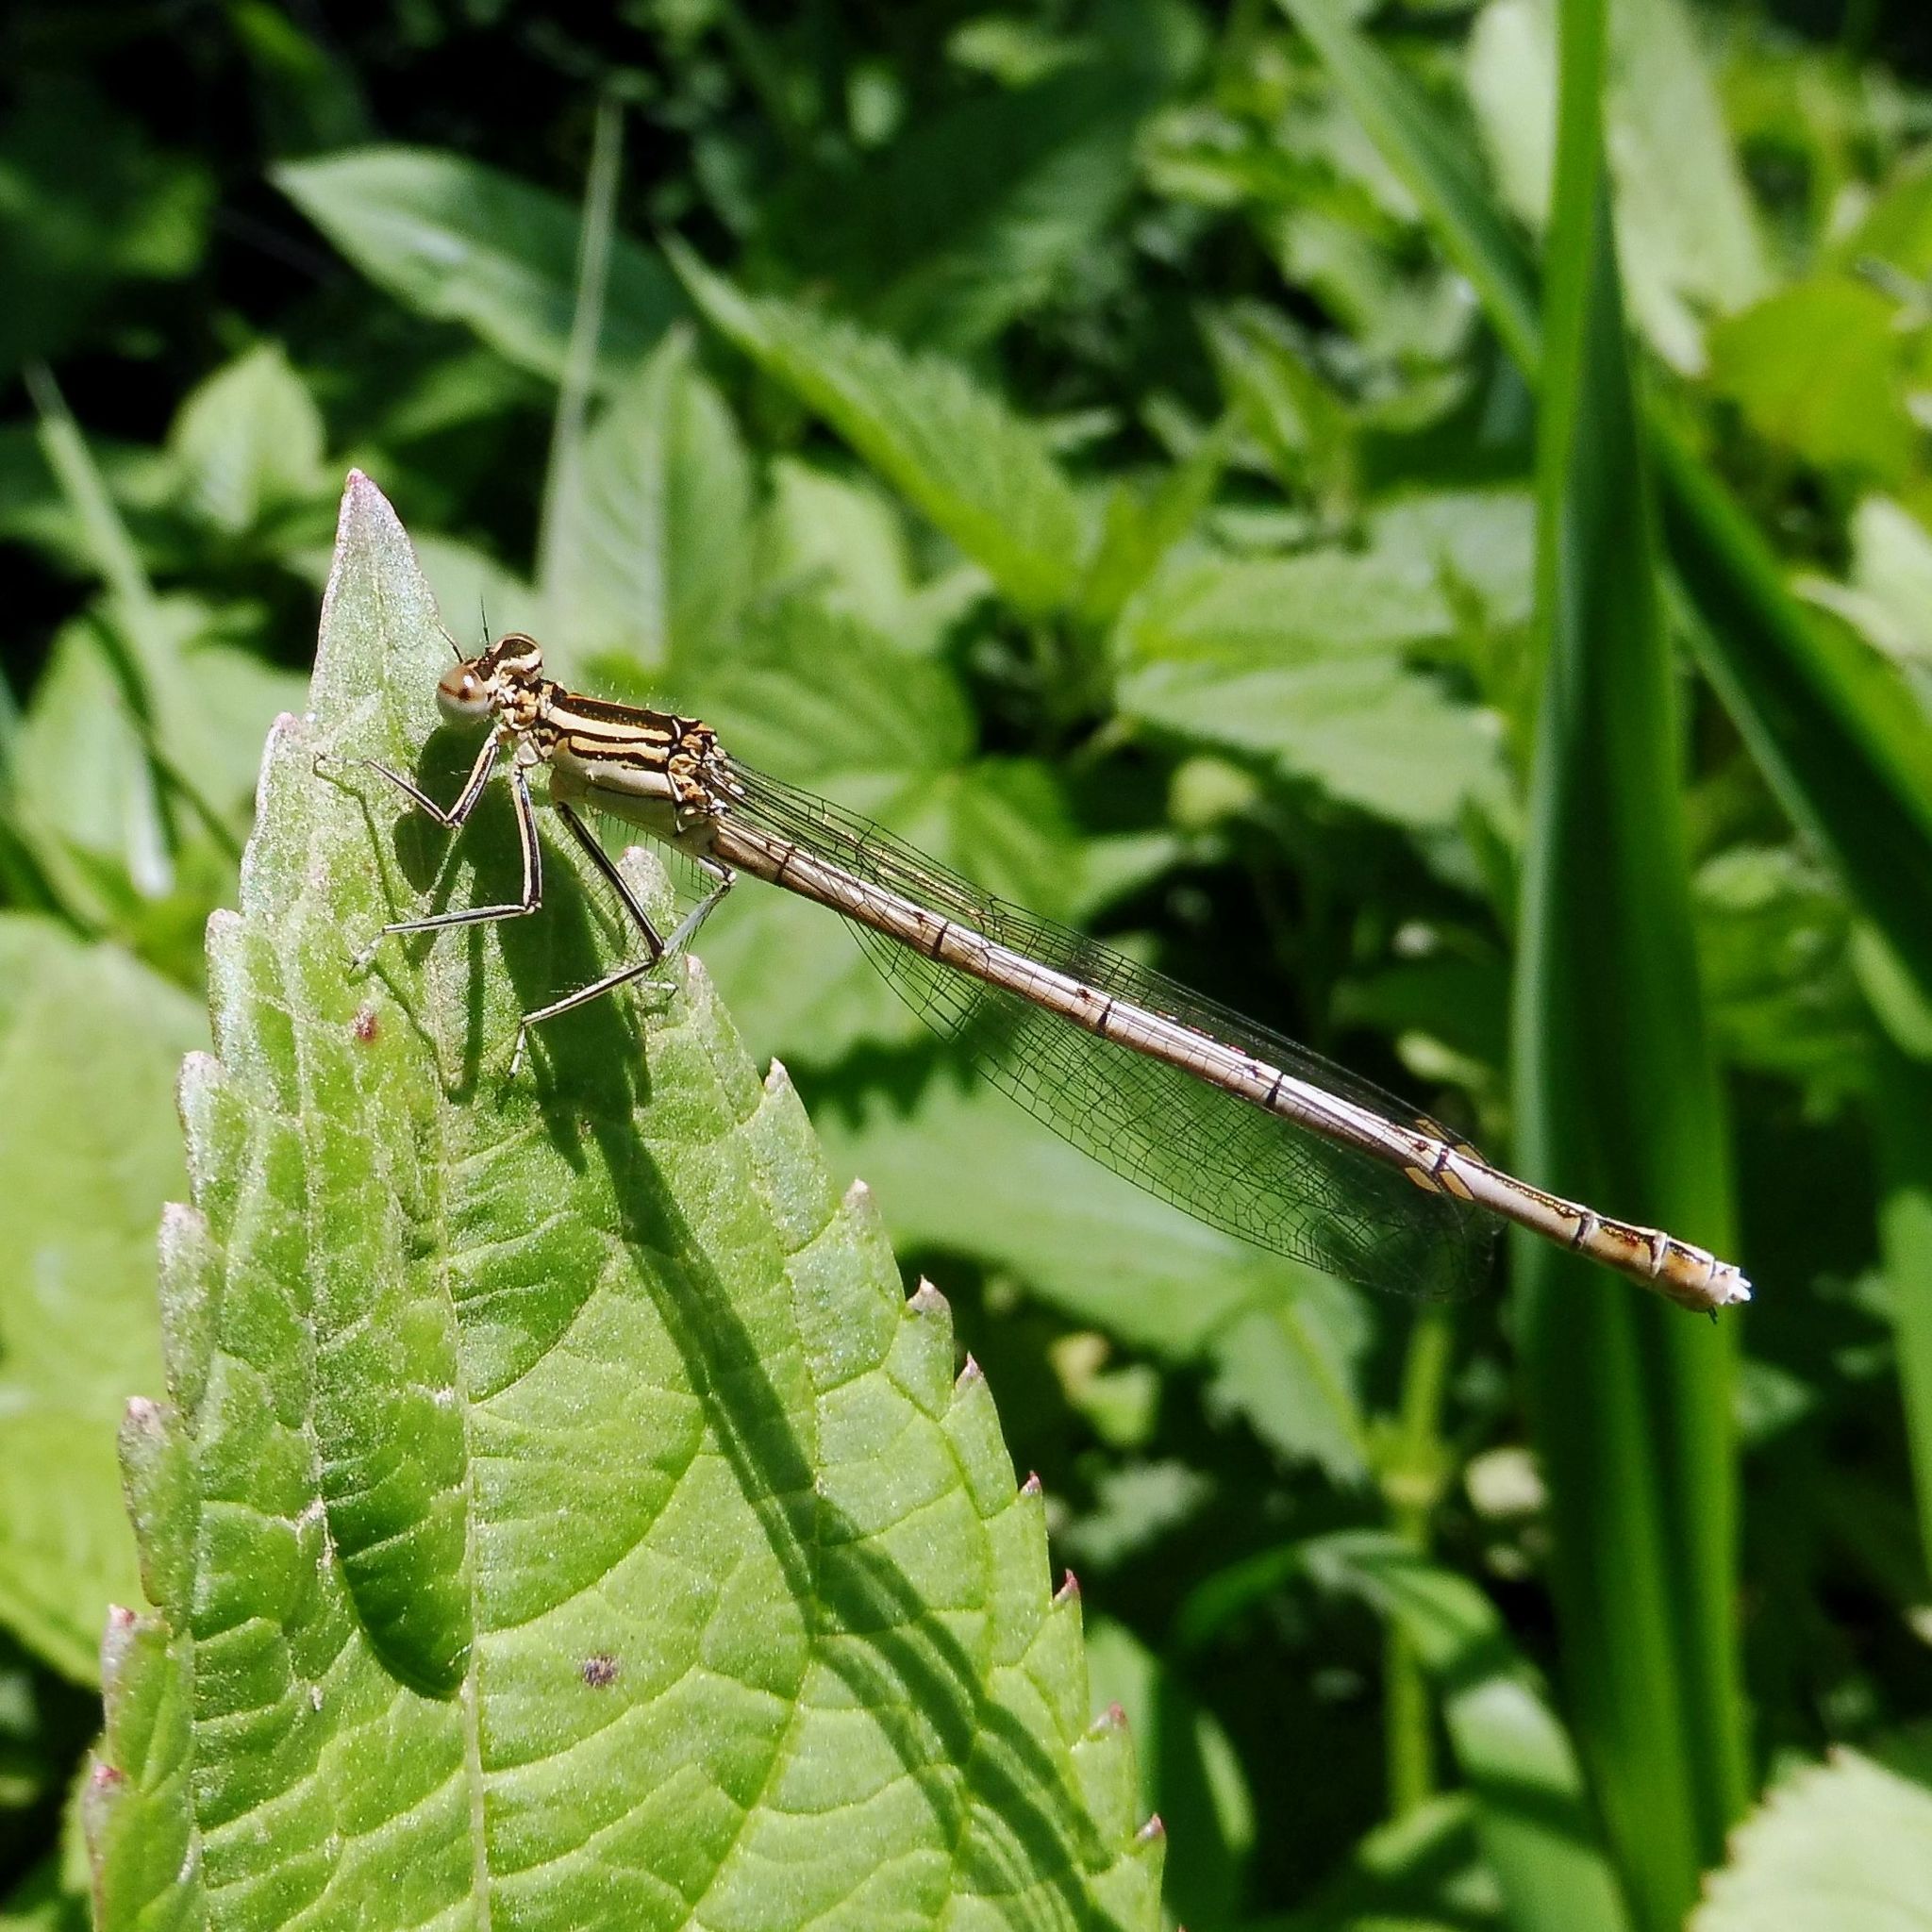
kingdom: Animalia
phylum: Arthropoda
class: Insecta
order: Odonata
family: Platycnemididae
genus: Platycnemis
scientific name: Platycnemis pennipes
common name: White-legged damselfly
